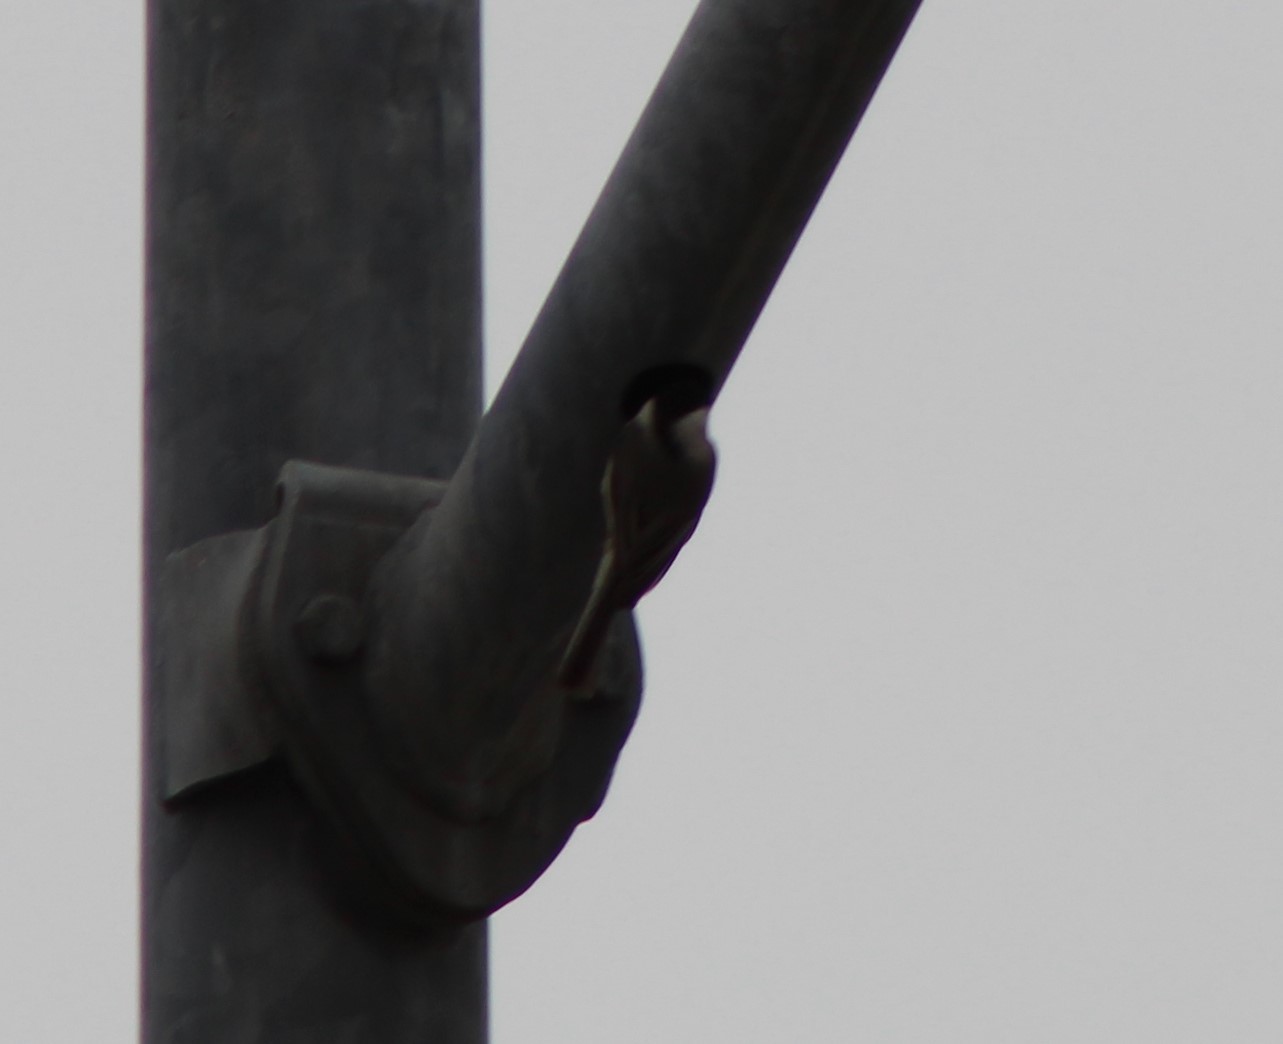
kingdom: Animalia
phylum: Chordata
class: Aves
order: Passeriformes
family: Paridae
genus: Poecile
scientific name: Poecile carolinensis
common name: Carolina chickadee
